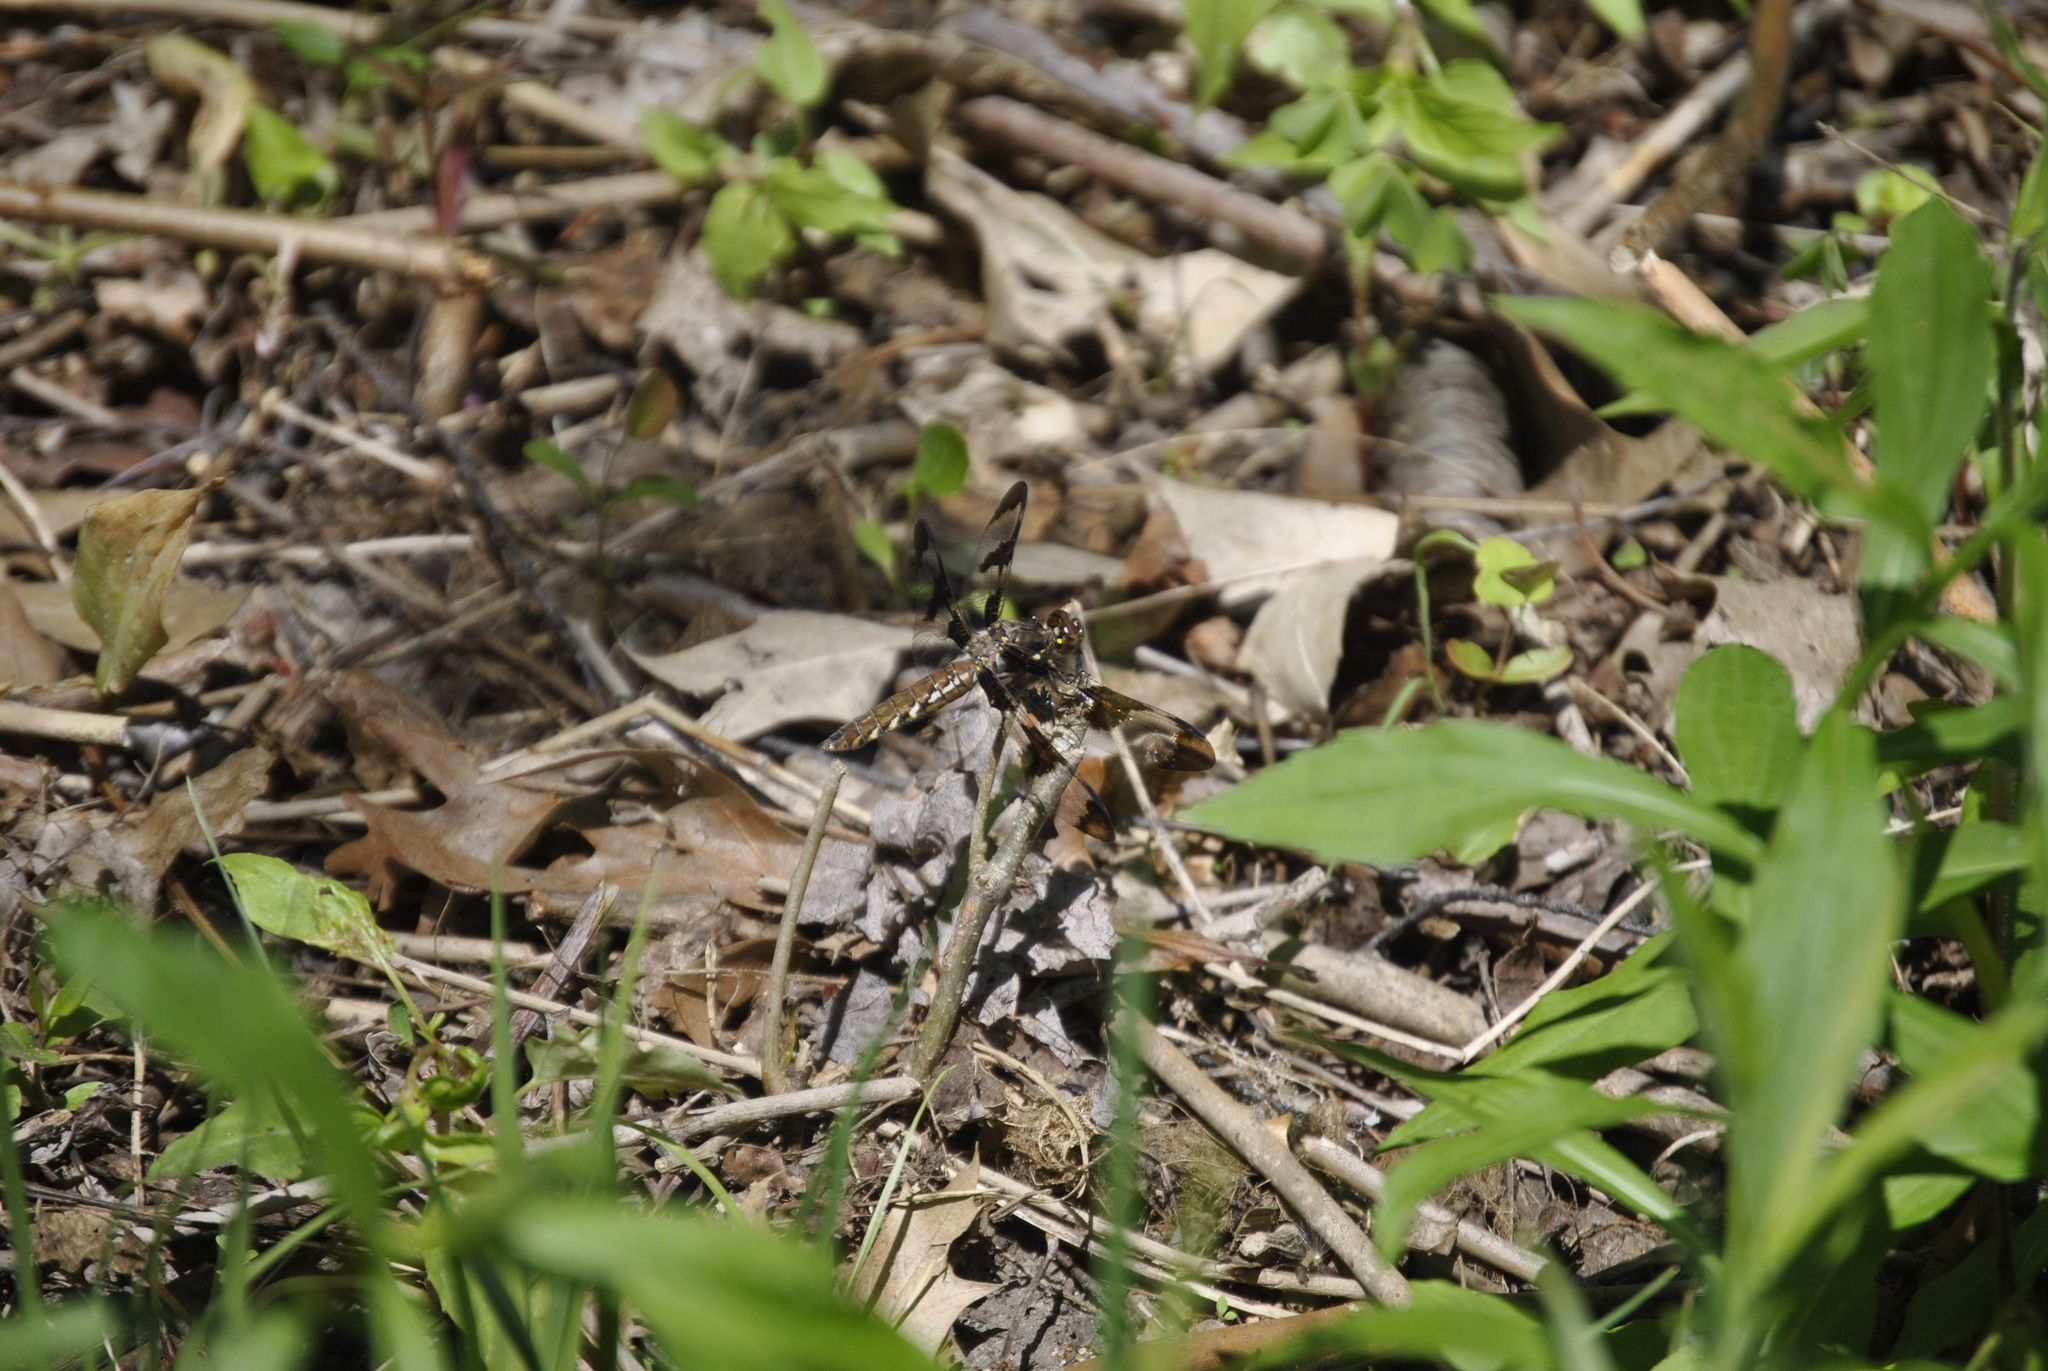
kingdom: Animalia
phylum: Arthropoda
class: Insecta
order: Odonata
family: Libellulidae
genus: Plathemis
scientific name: Plathemis lydia
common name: Common whitetail
